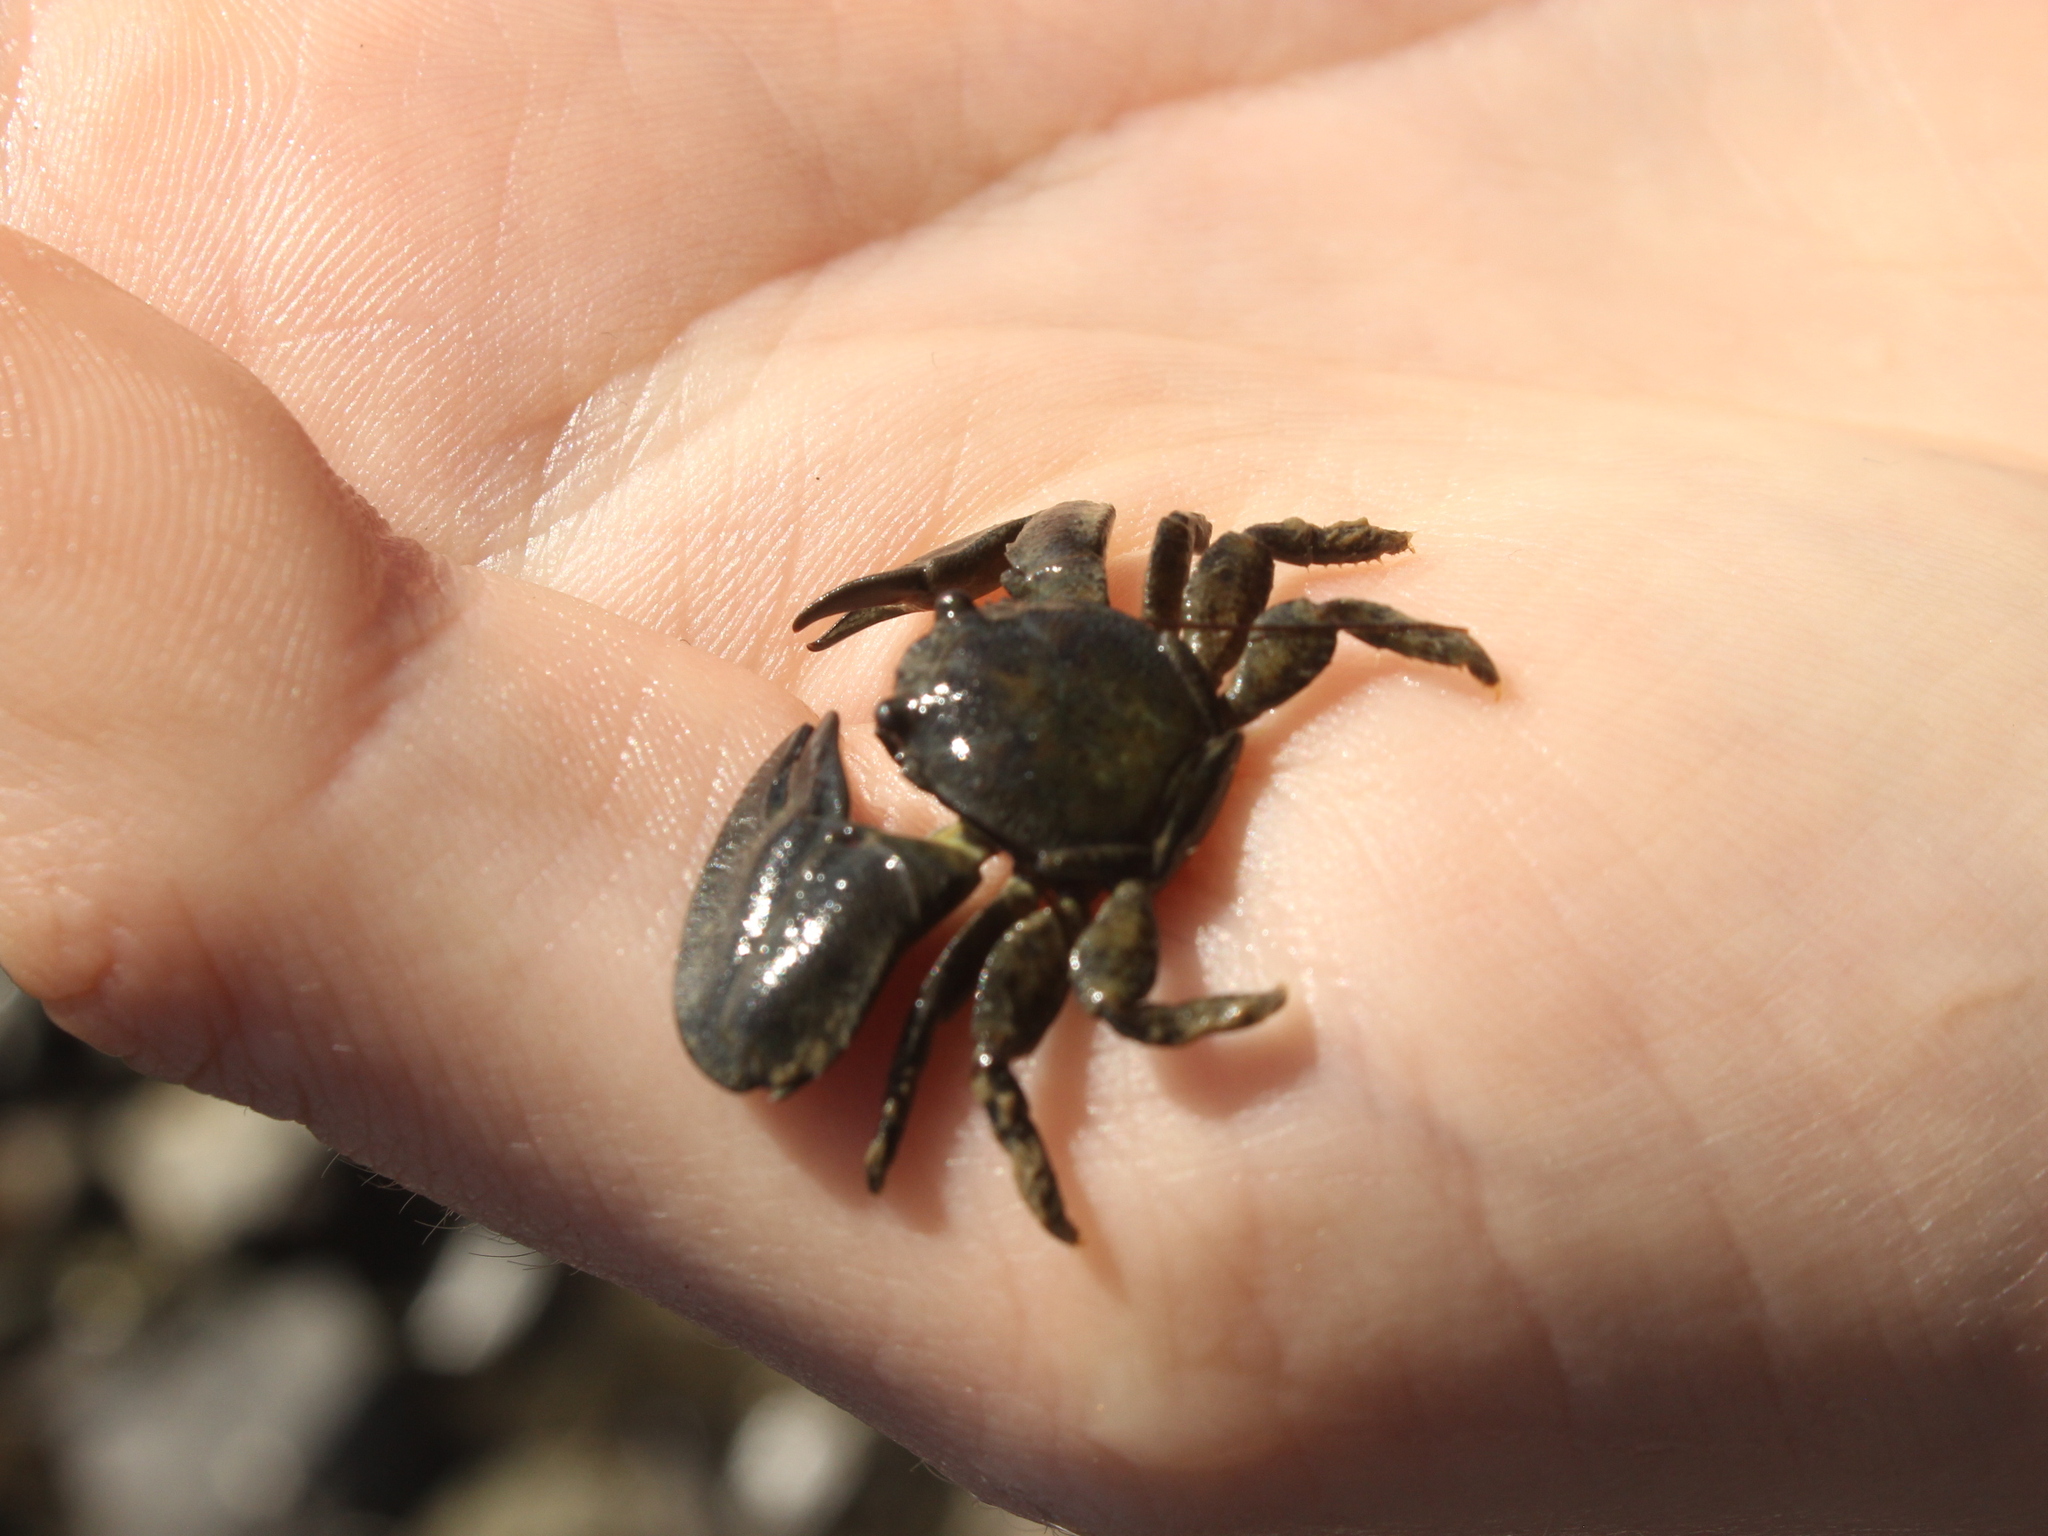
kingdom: Animalia
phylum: Arthropoda
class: Malacostraca
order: Decapoda
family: Porcellanidae
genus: Petrolisthes
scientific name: Petrolisthes elongatus
